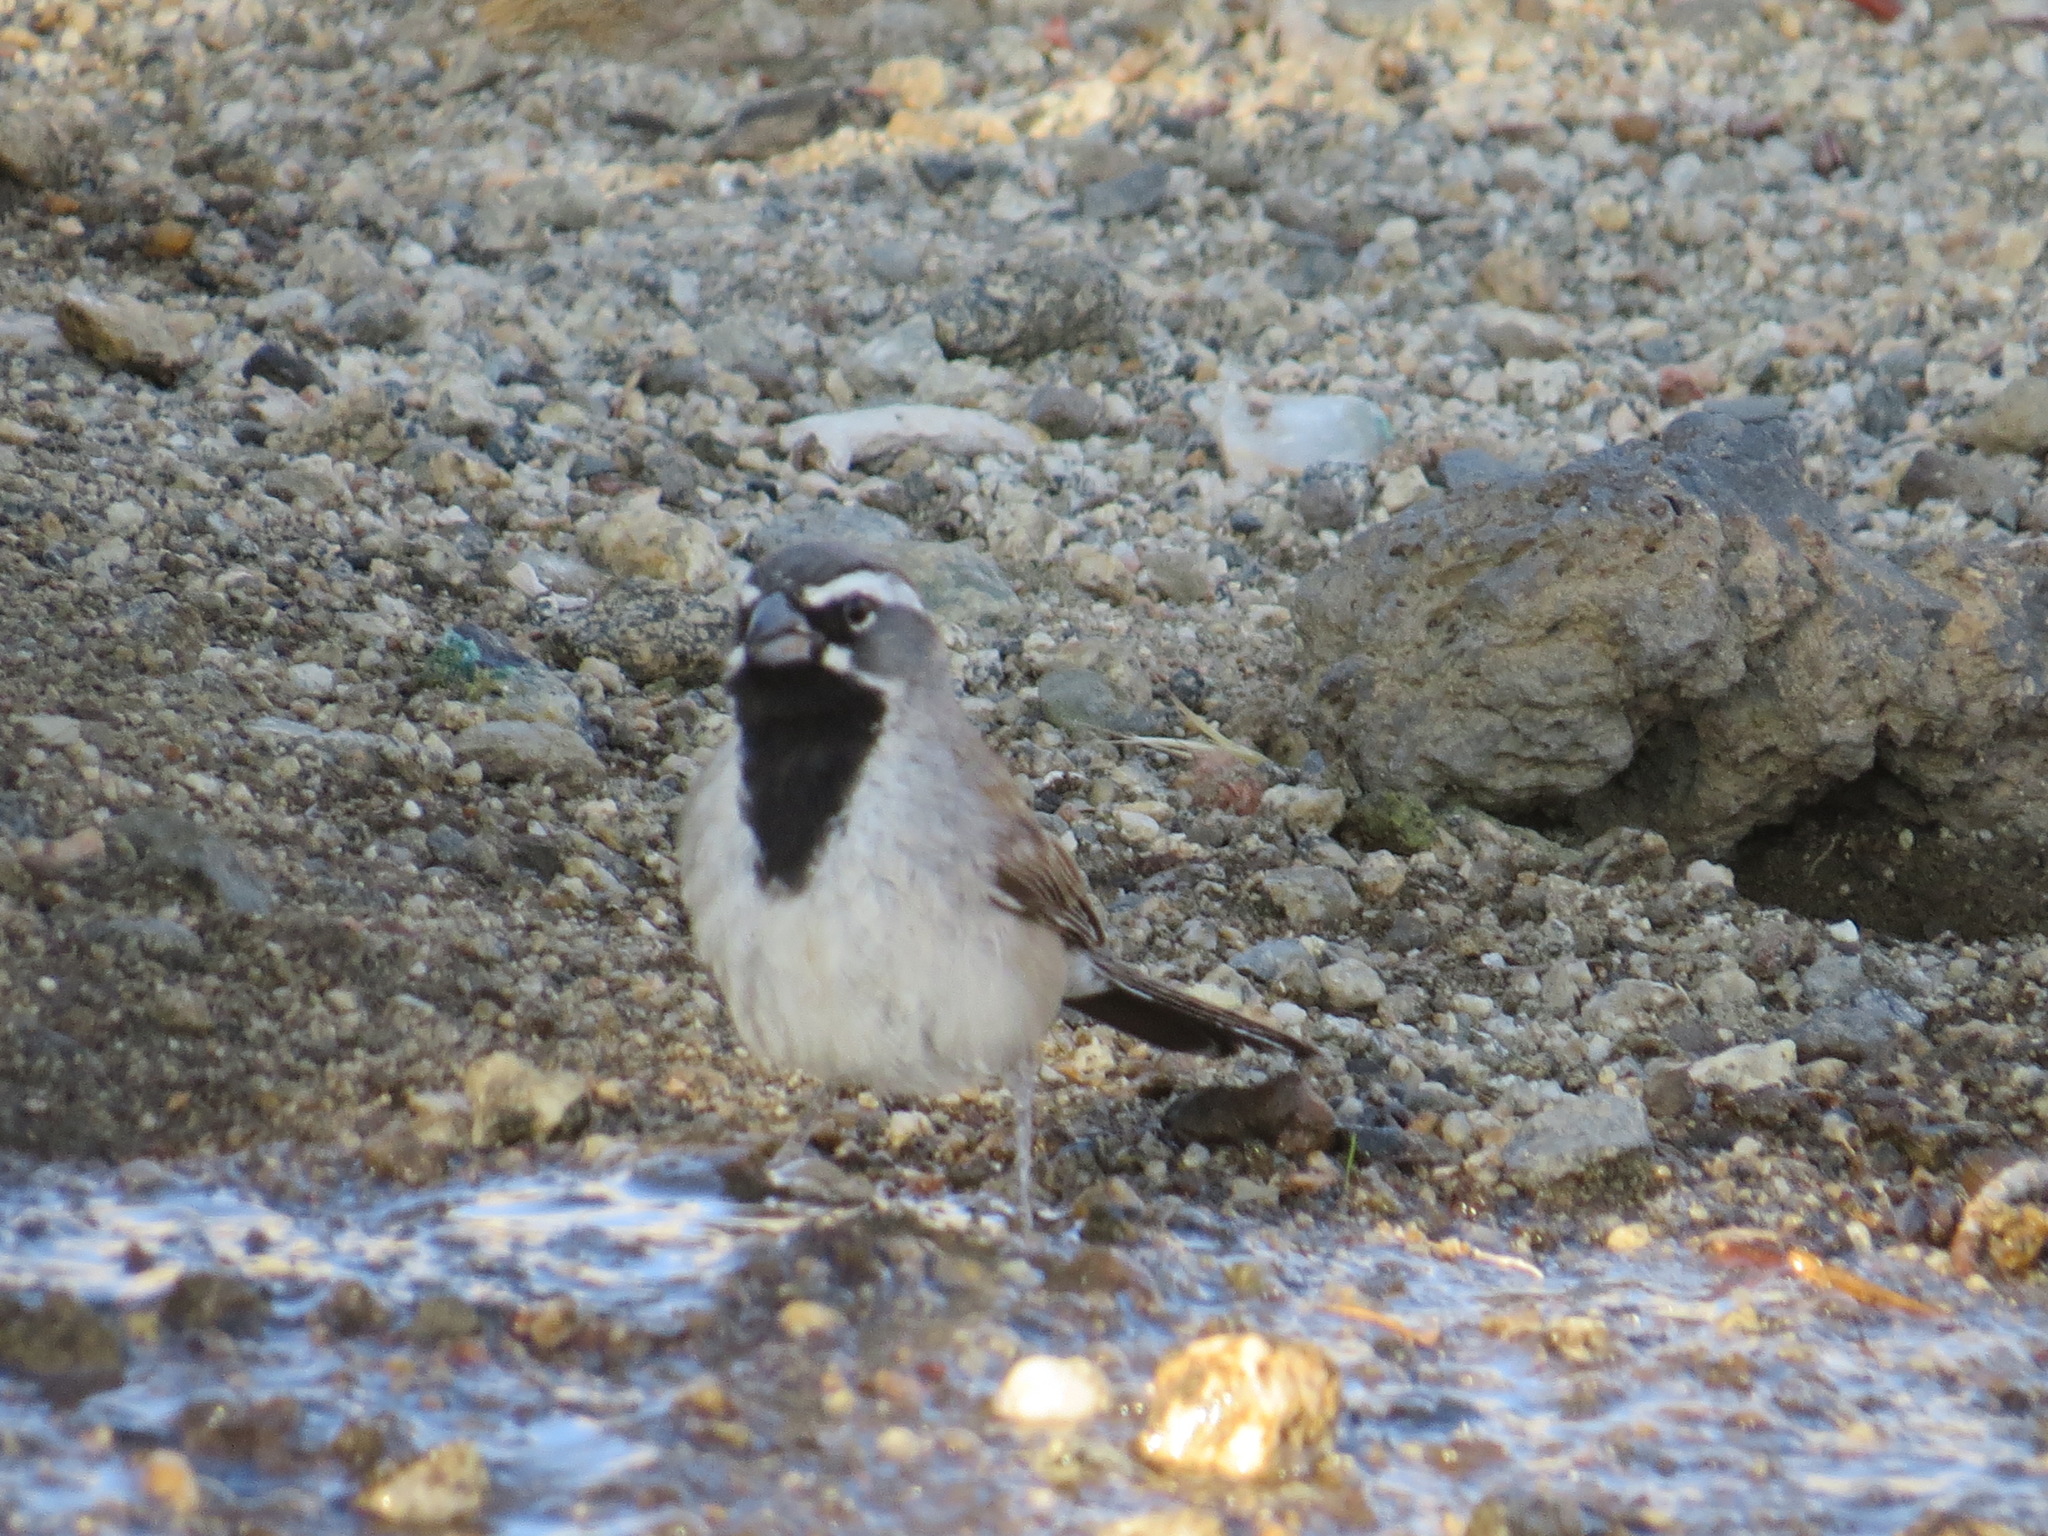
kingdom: Animalia
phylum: Chordata
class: Aves
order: Passeriformes
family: Passerellidae
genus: Amphispiza
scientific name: Amphispiza bilineata
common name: Black-throated sparrow
